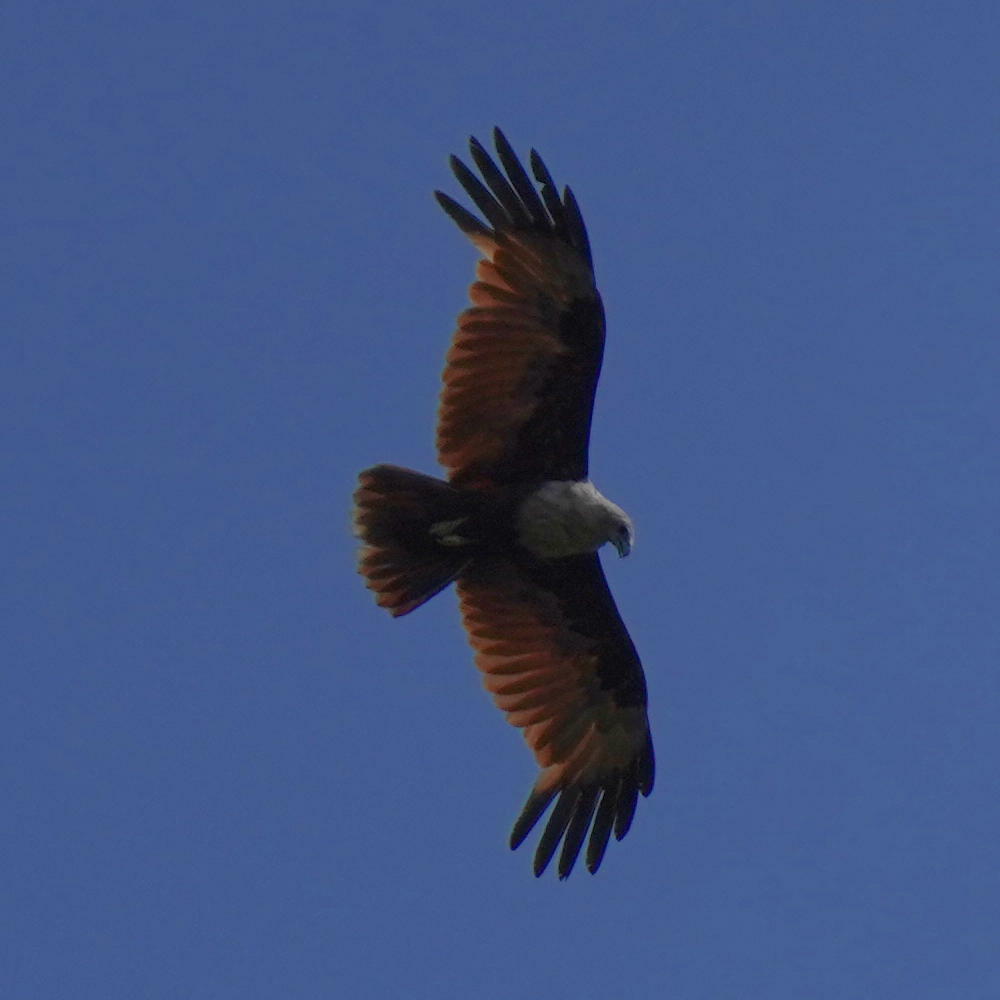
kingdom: Animalia
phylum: Chordata
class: Aves
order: Accipitriformes
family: Accipitridae
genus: Haliastur
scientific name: Haliastur indus
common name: Brahminy kite
